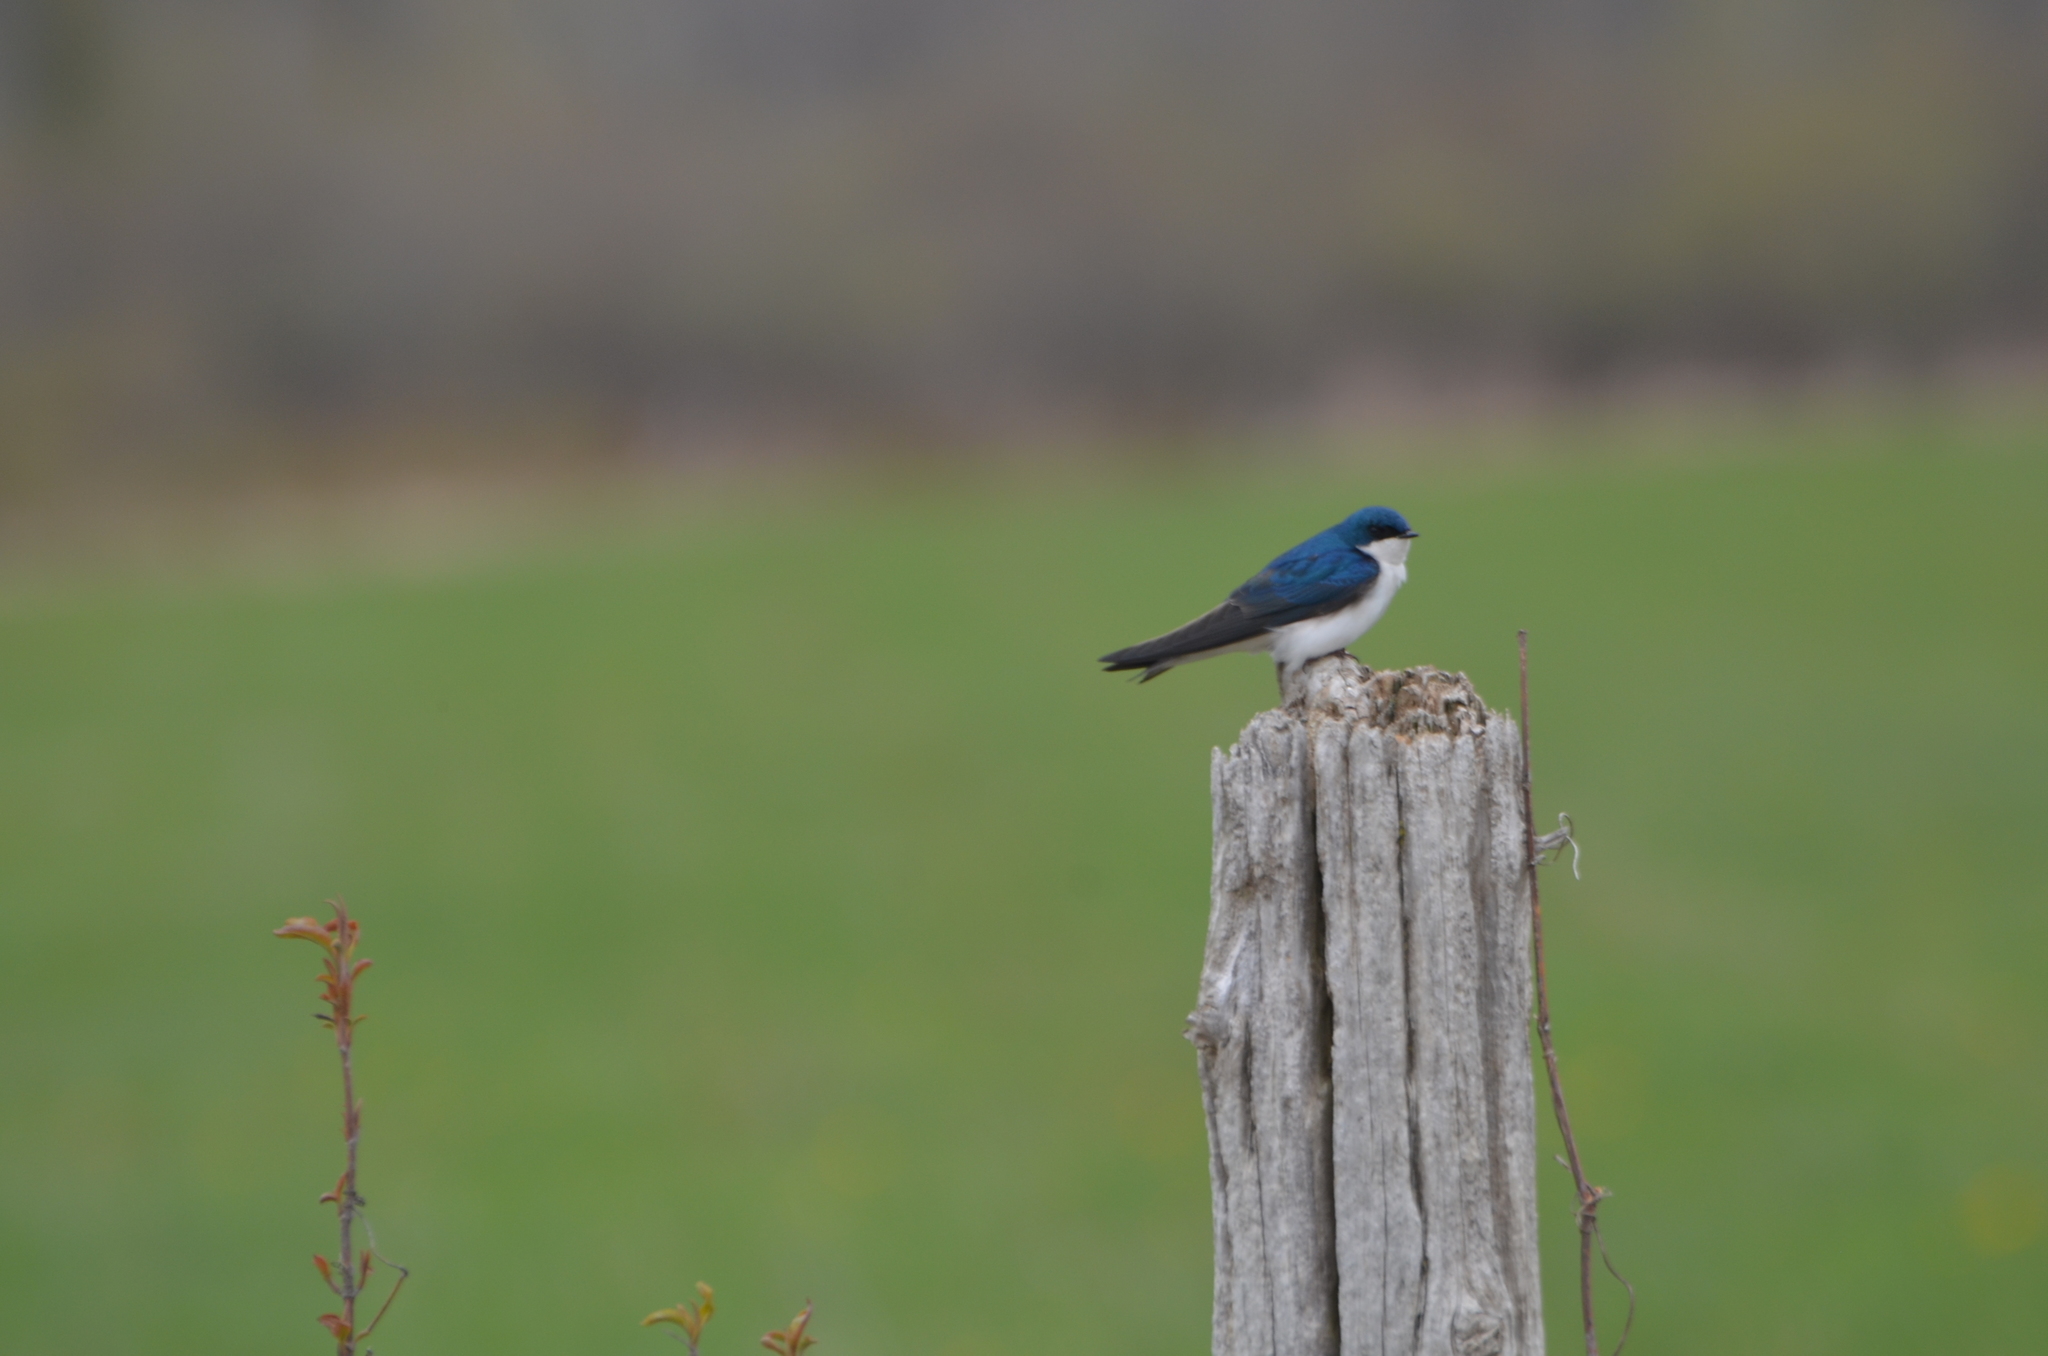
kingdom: Animalia
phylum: Chordata
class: Aves
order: Passeriformes
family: Hirundinidae
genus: Tachycineta
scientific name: Tachycineta bicolor
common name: Tree swallow
